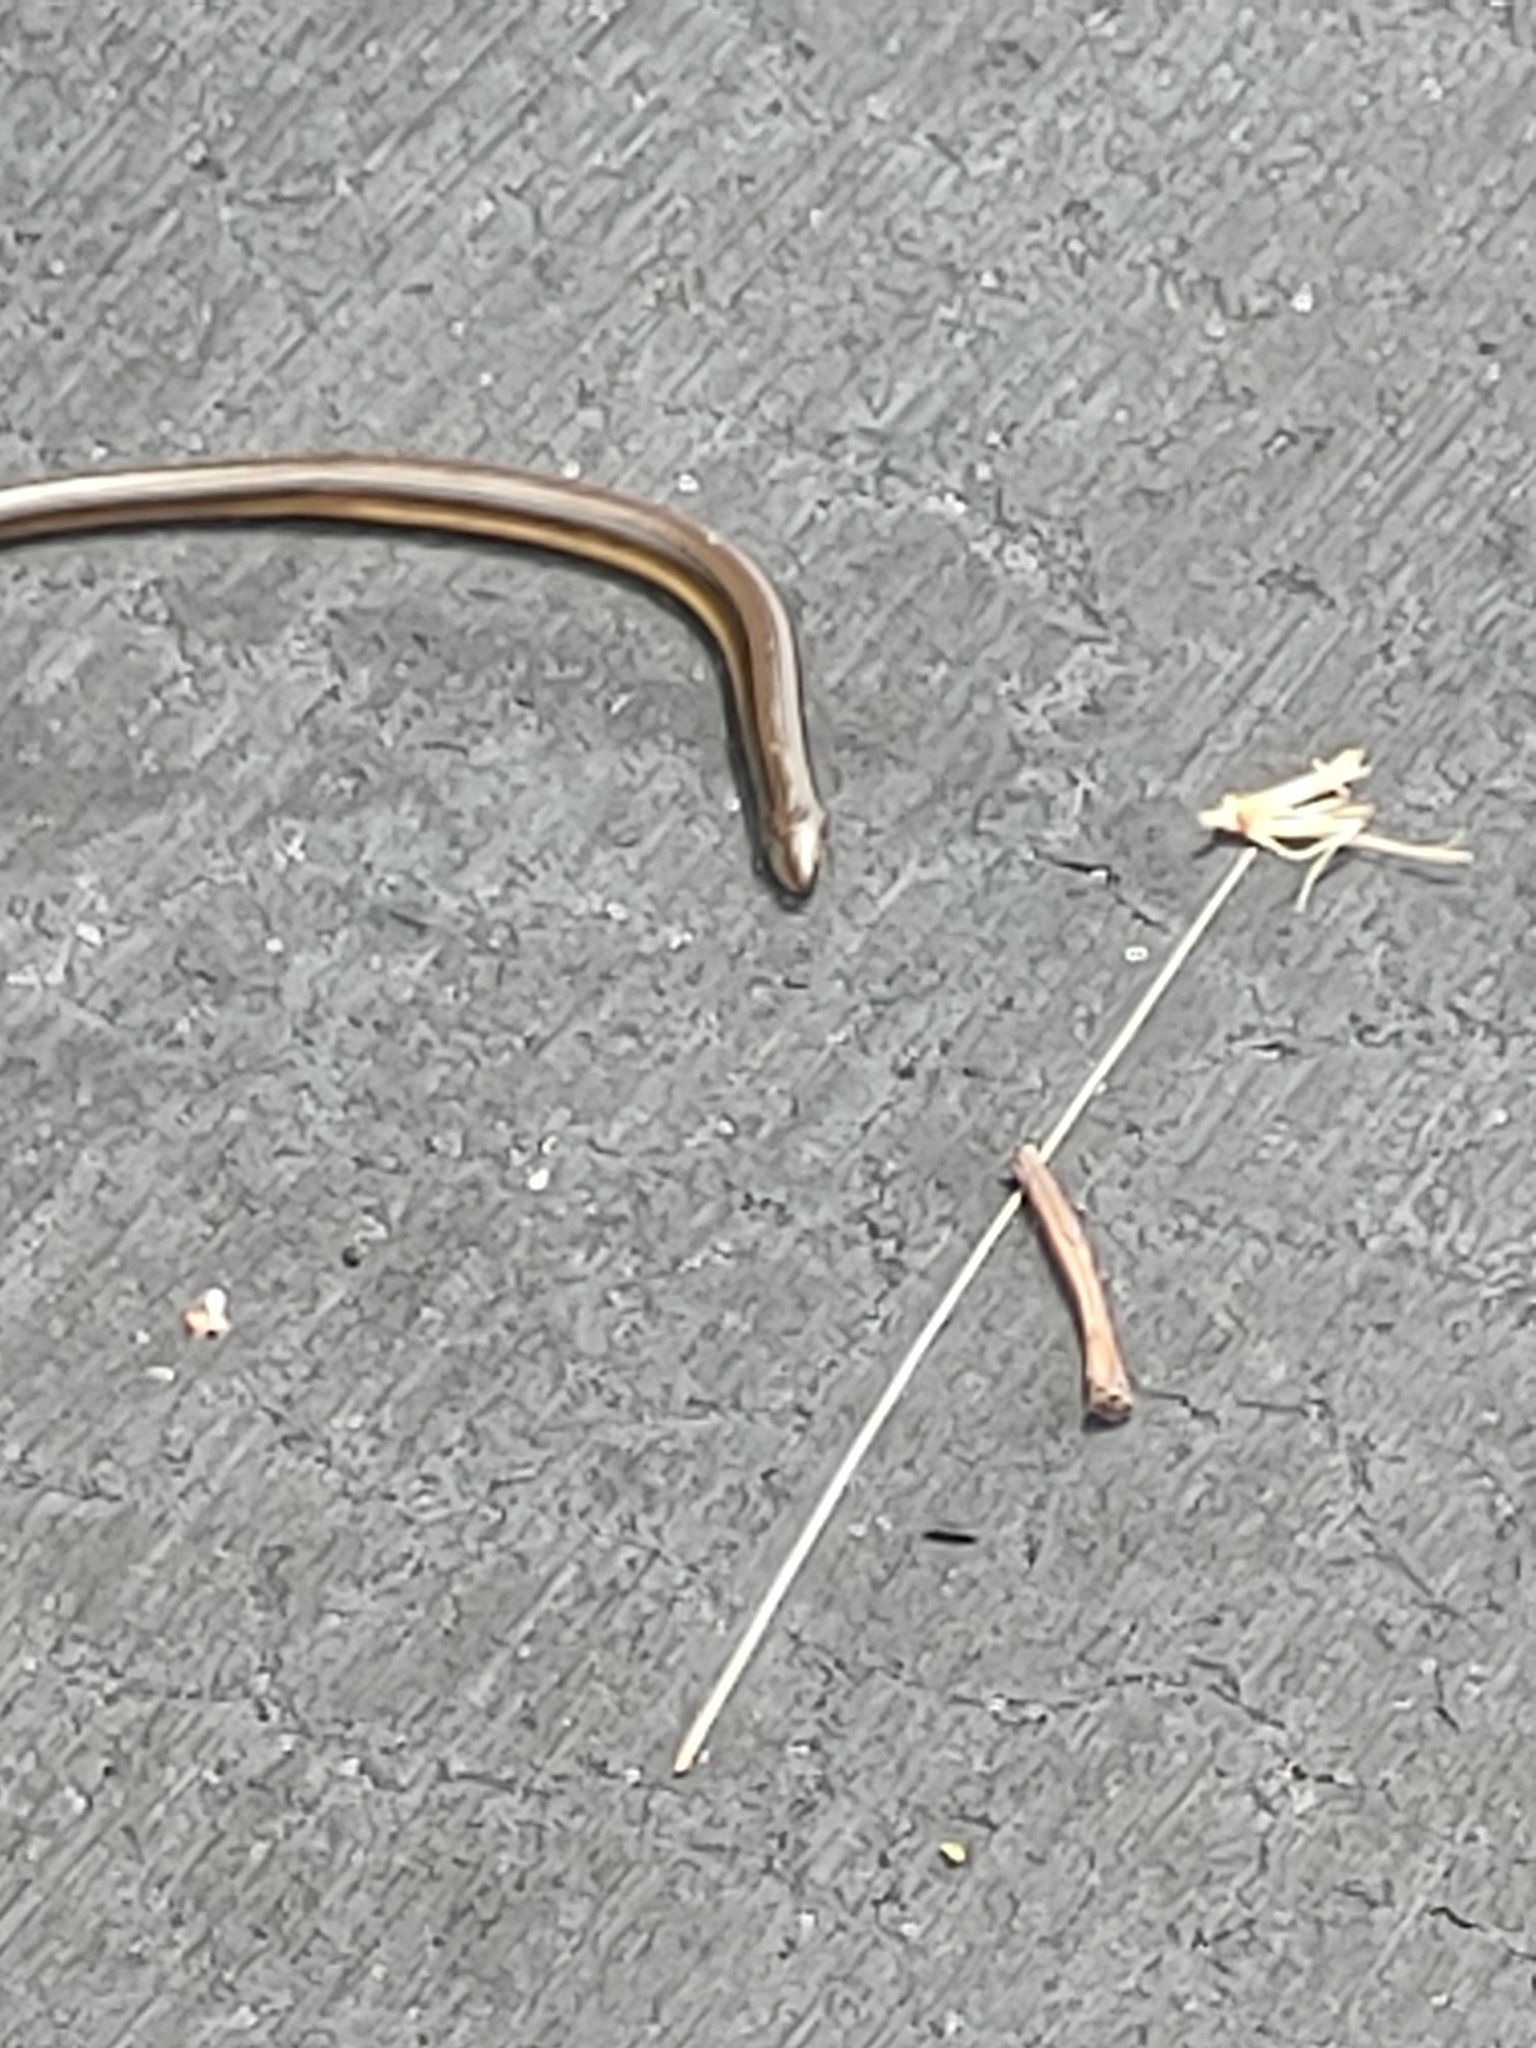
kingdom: Animalia
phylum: Chordata
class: Squamata
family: Anguidae
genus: Ophisaurus
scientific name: Ophisaurus ventralis
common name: Eastern glass lizard
